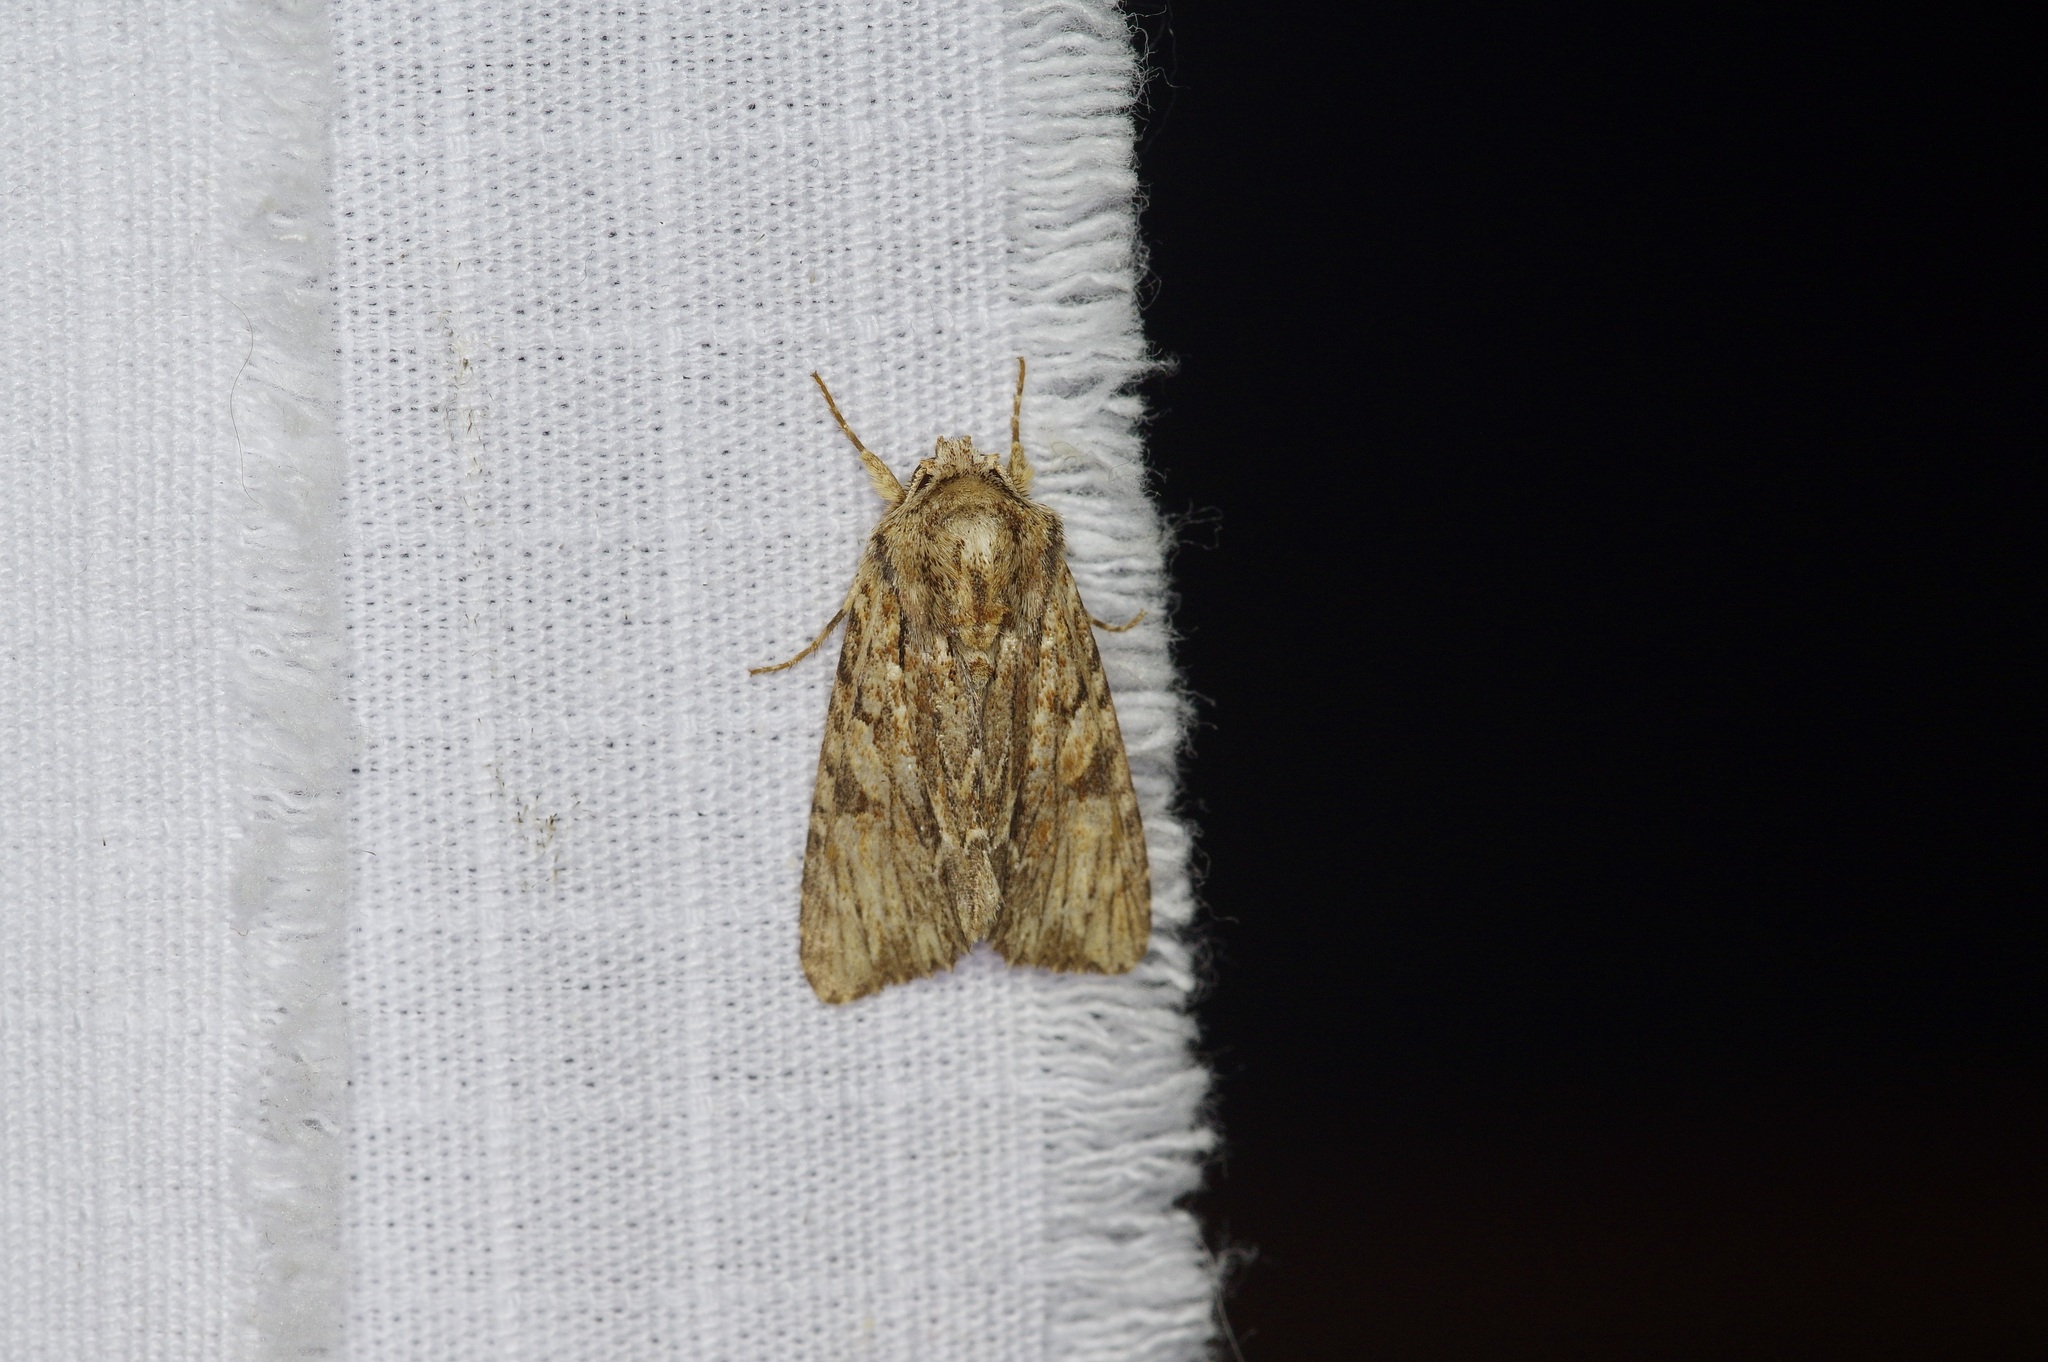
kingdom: Animalia
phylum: Arthropoda
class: Insecta
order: Lepidoptera
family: Noctuidae
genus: Achatia
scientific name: Achatia mucens
